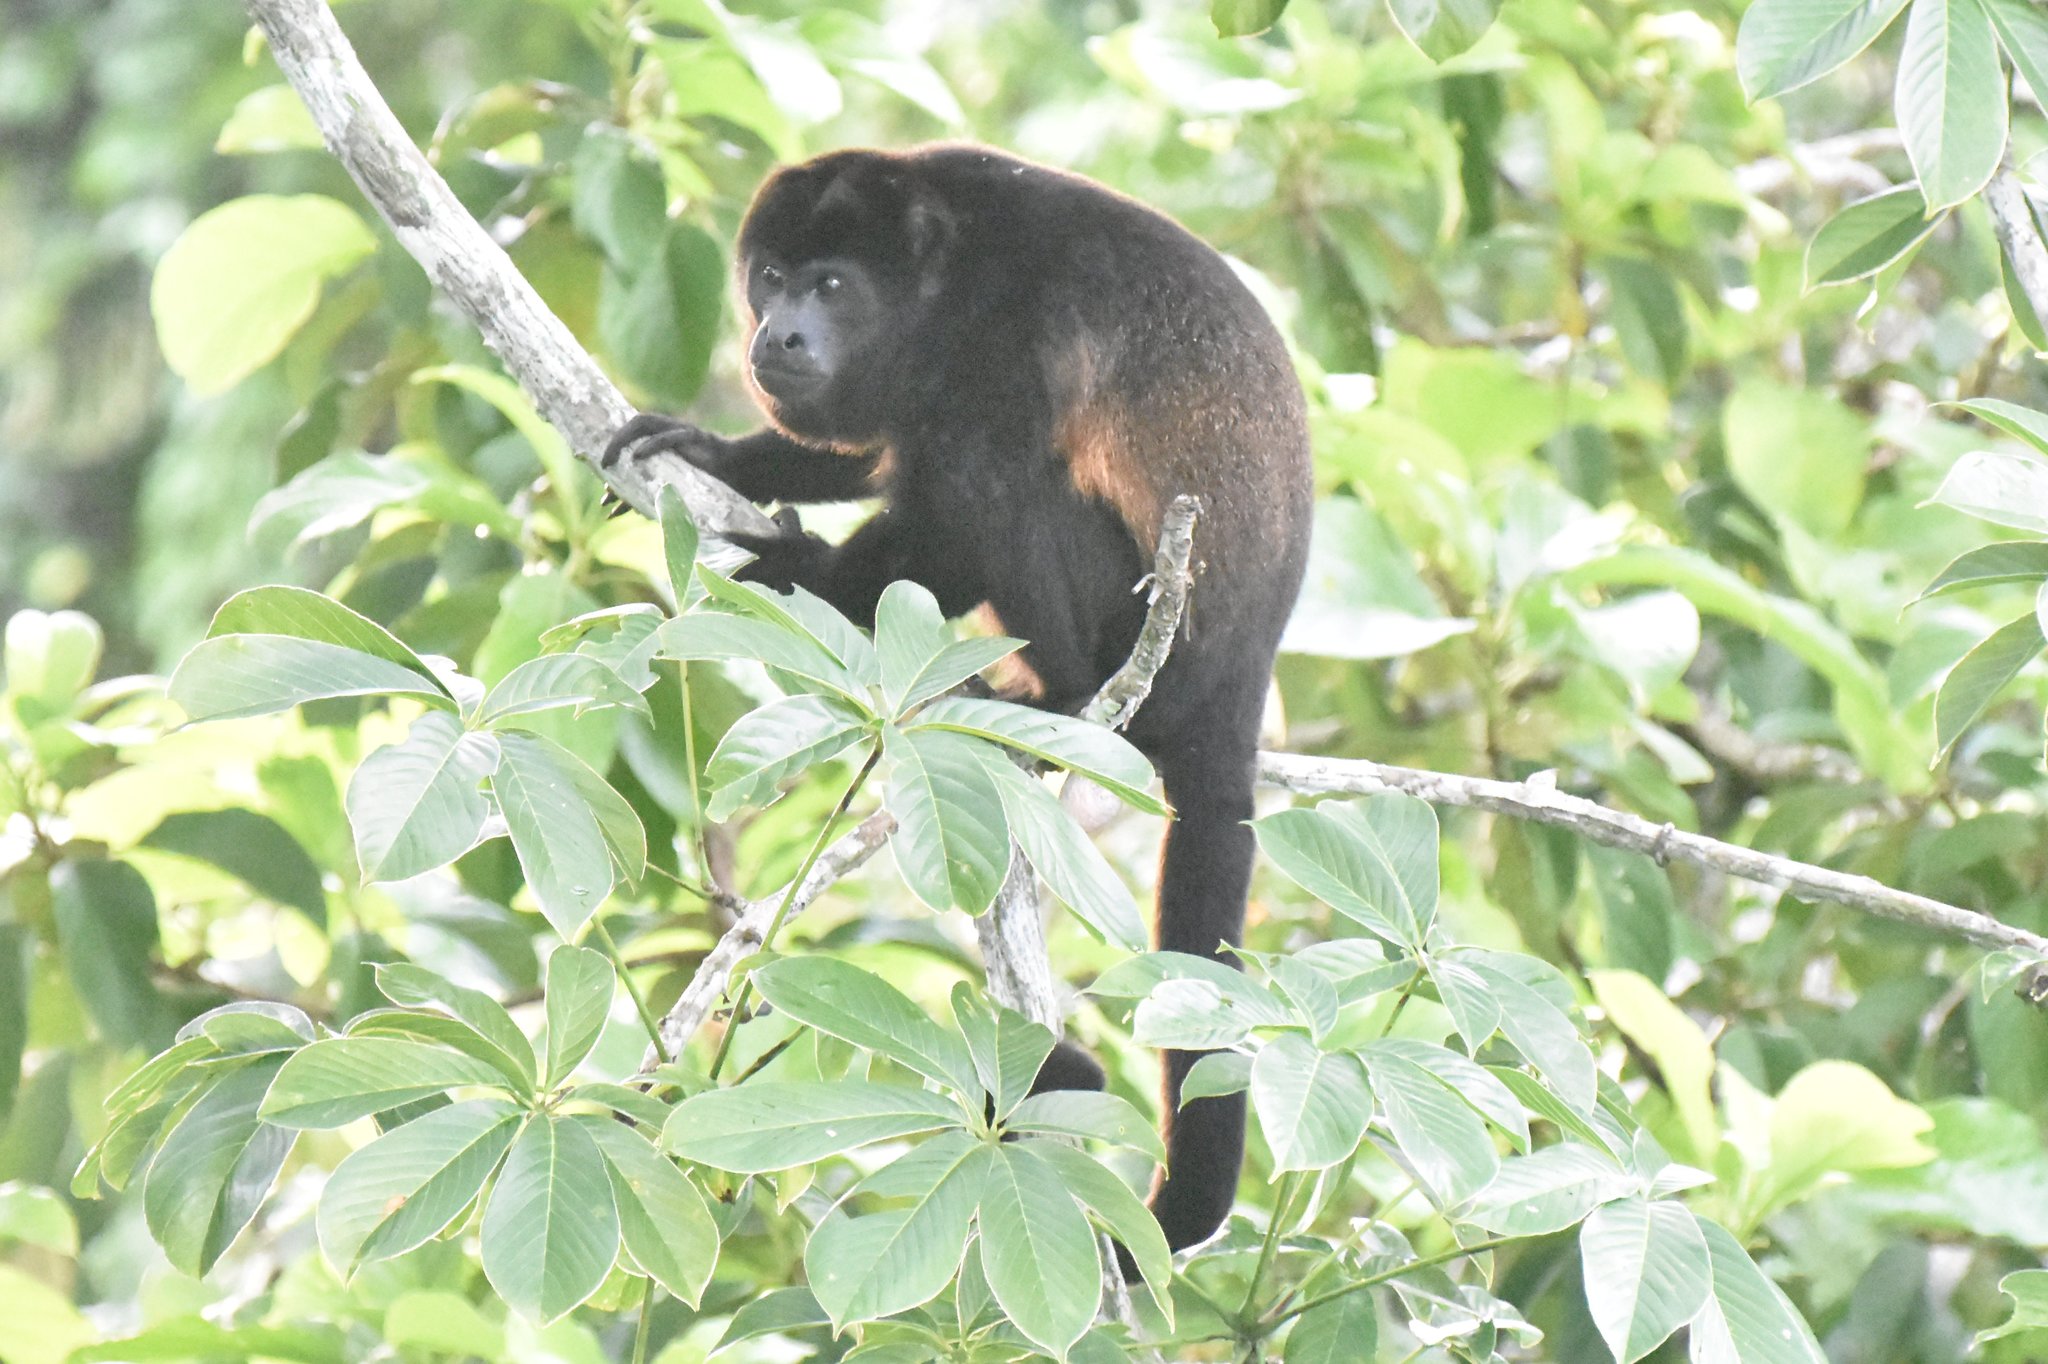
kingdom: Animalia
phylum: Chordata
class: Mammalia
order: Primates
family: Atelidae
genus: Alouatta
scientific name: Alouatta palliata
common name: Mantled howler
